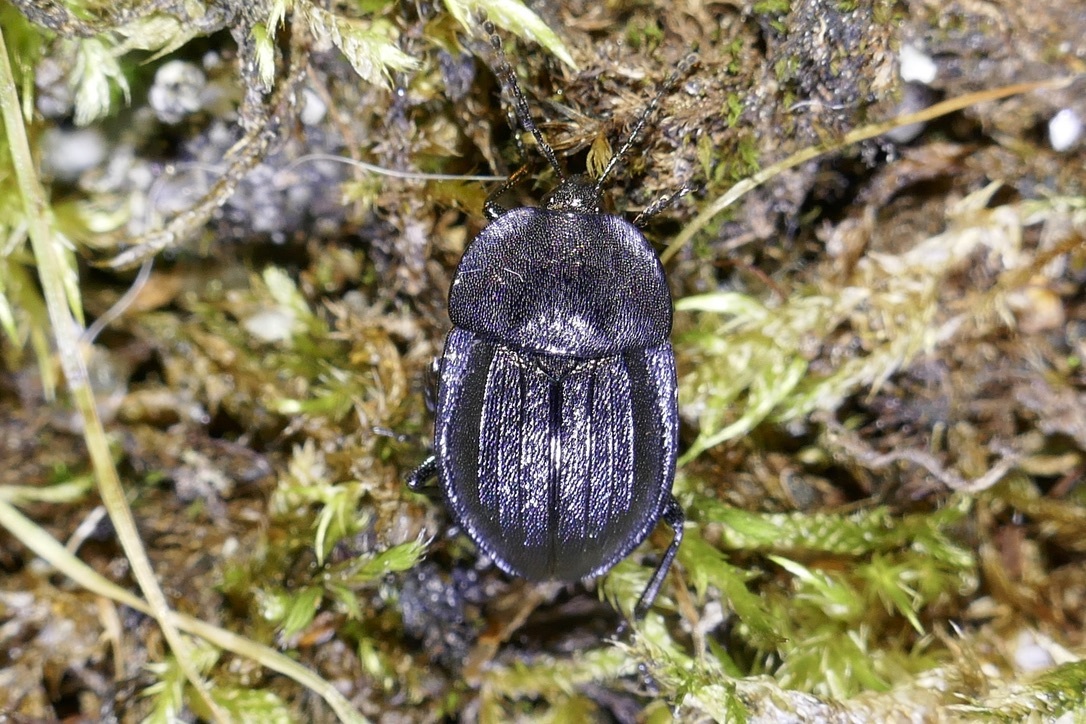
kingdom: Animalia
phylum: Arthropoda
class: Insecta
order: Coleoptera
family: Staphylinidae
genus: Silpha
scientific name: Silpha atrata
